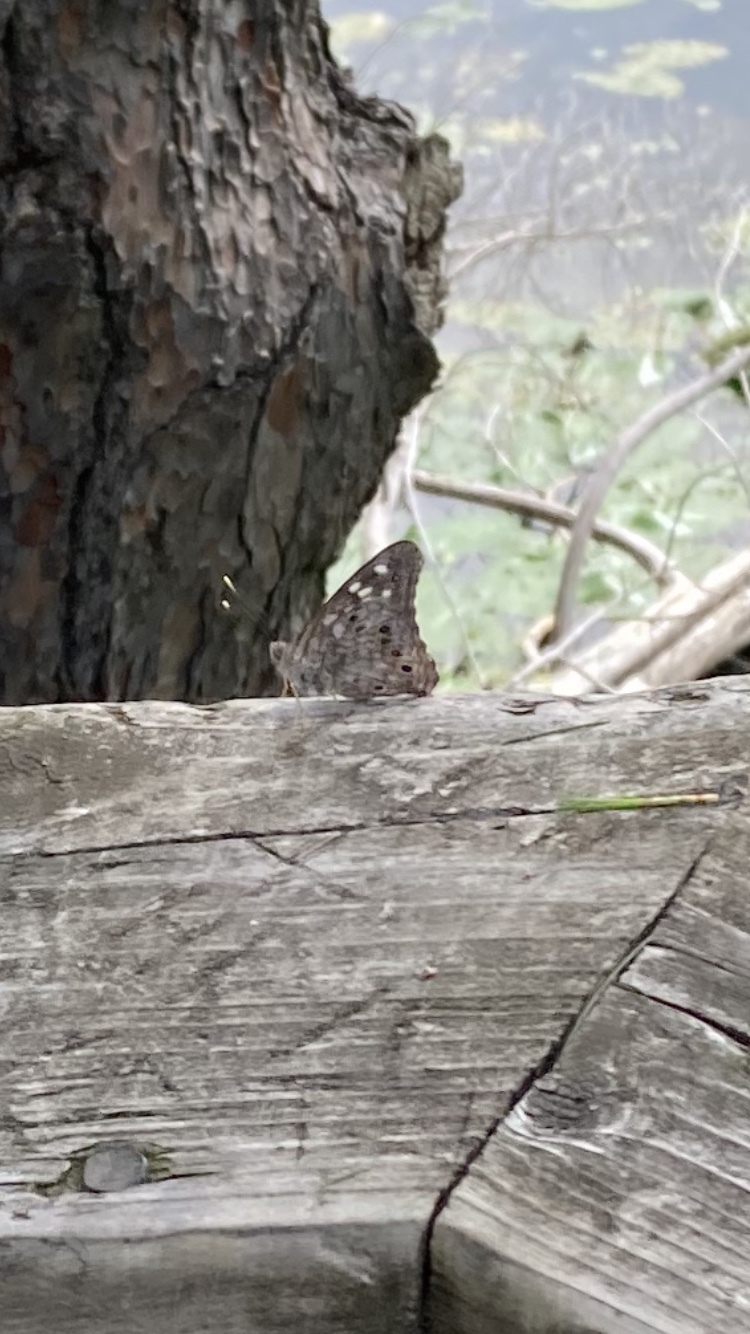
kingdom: Animalia
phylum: Arthropoda
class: Insecta
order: Lepidoptera
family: Nymphalidae
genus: Asterocampa
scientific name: Asterocampa celtis
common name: Hackberry emperor
